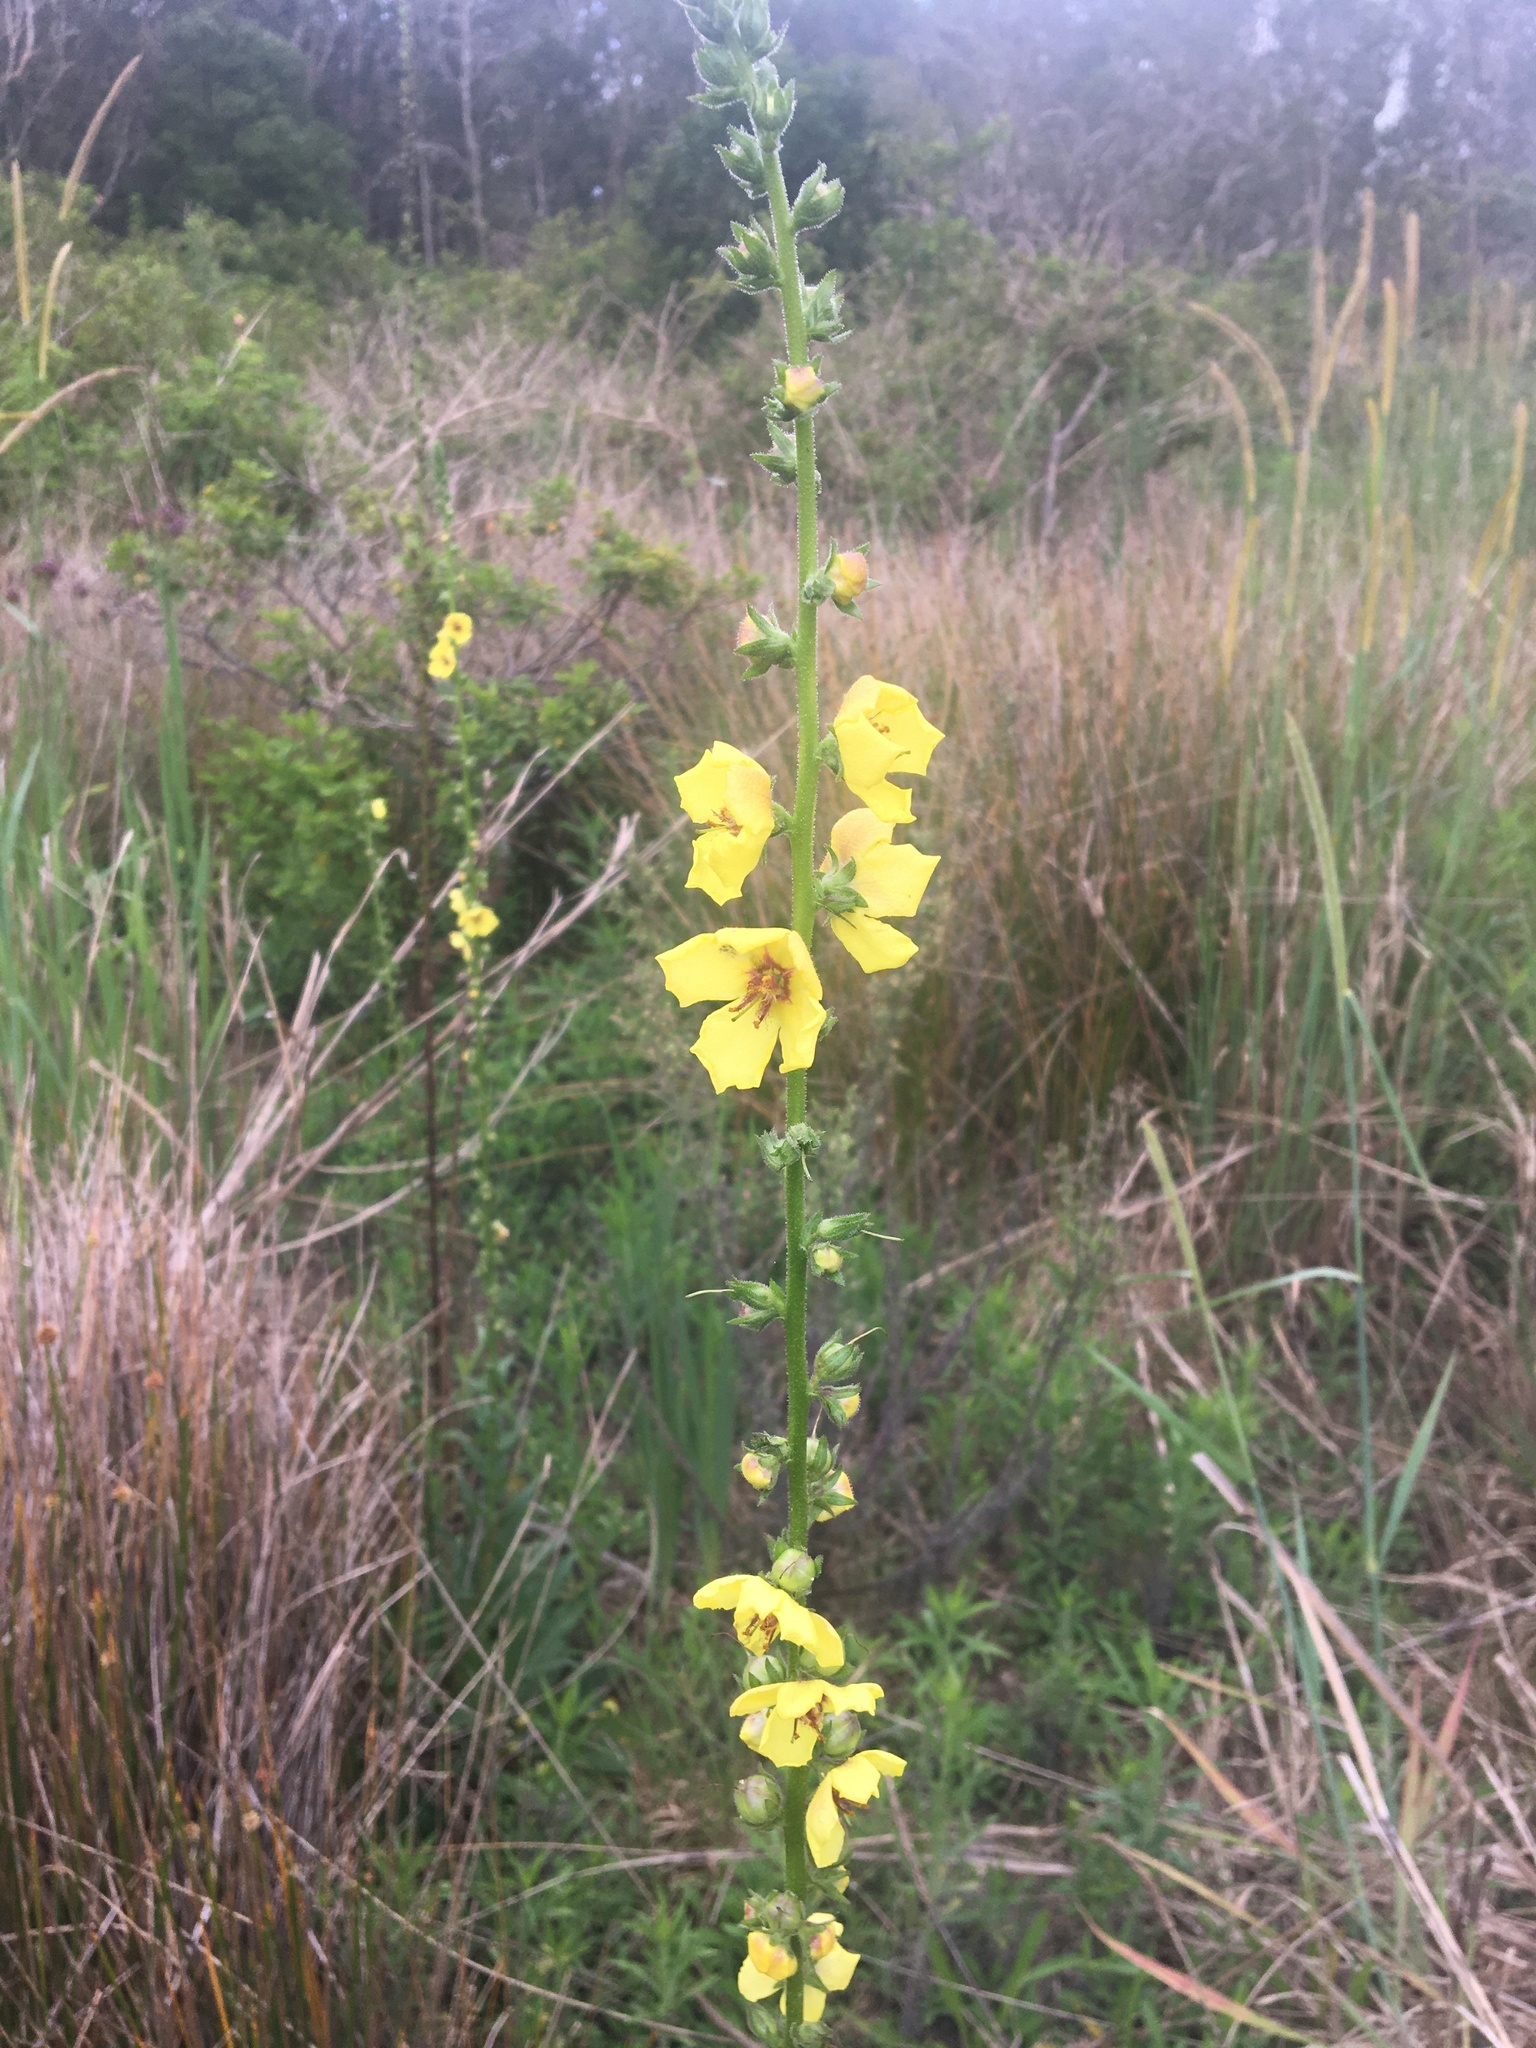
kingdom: Plantae
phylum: Tracheophyta
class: Magnoliopsida
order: Lamiales
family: Scrophulariaceae
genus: Verbascum
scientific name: Verbascum virgatum
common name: Twiggy mullein
